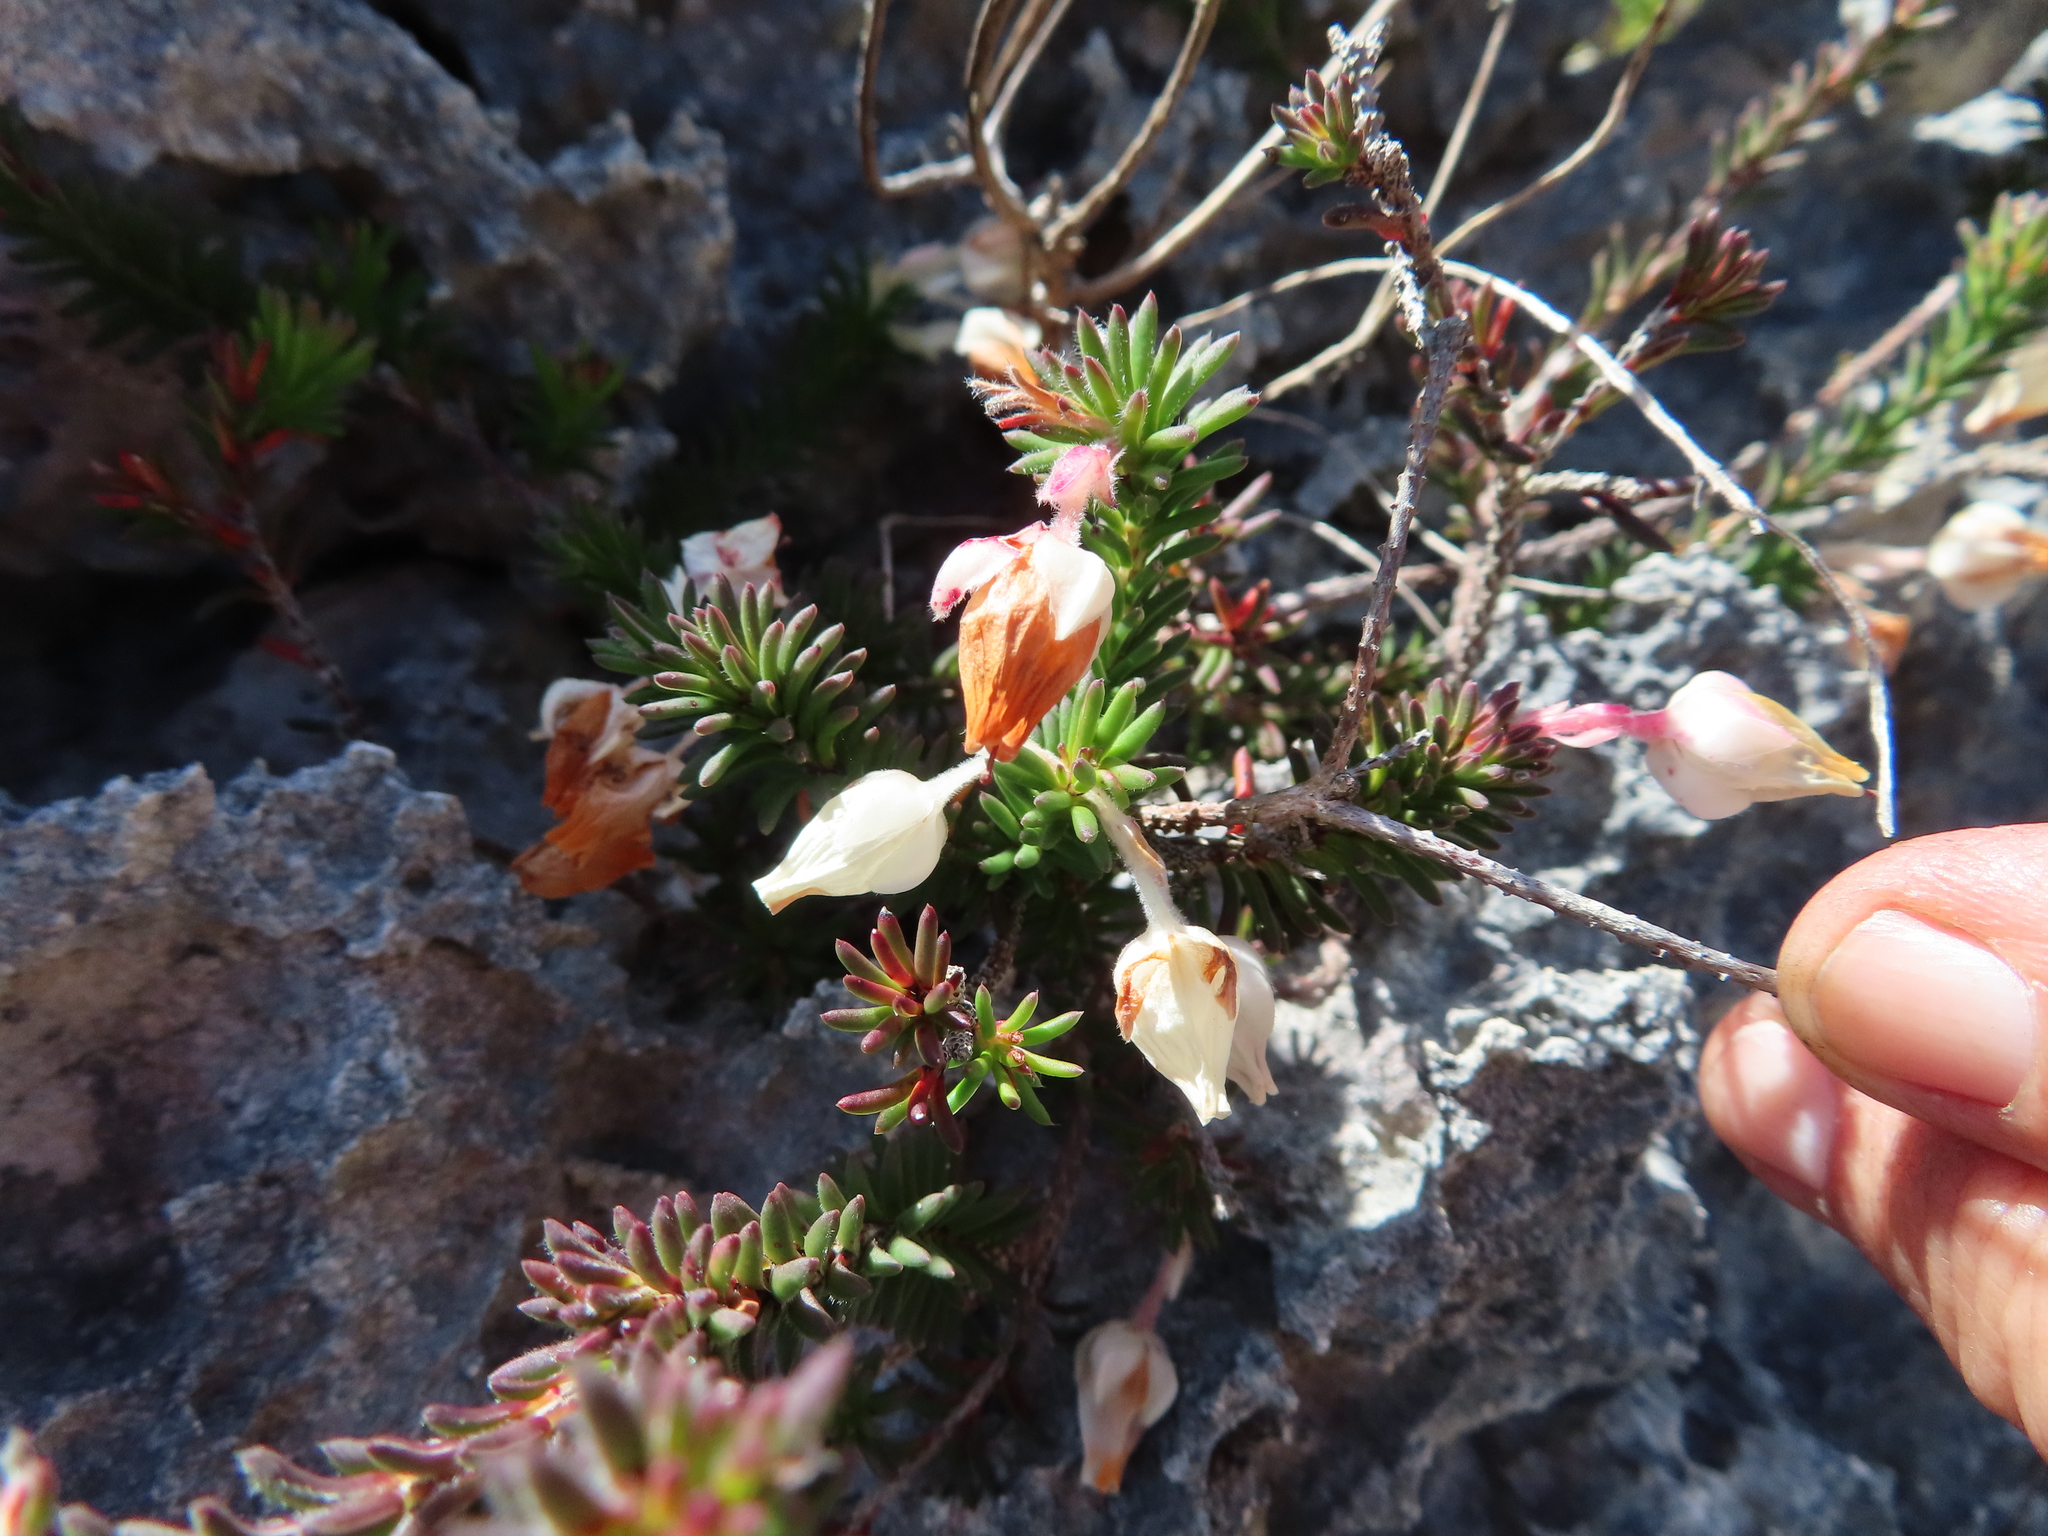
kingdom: Plantae
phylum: Tracheophyta
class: Magnoliopsida
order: Ericales
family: Ericaceae
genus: Erica
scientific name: Erica calcareophila
